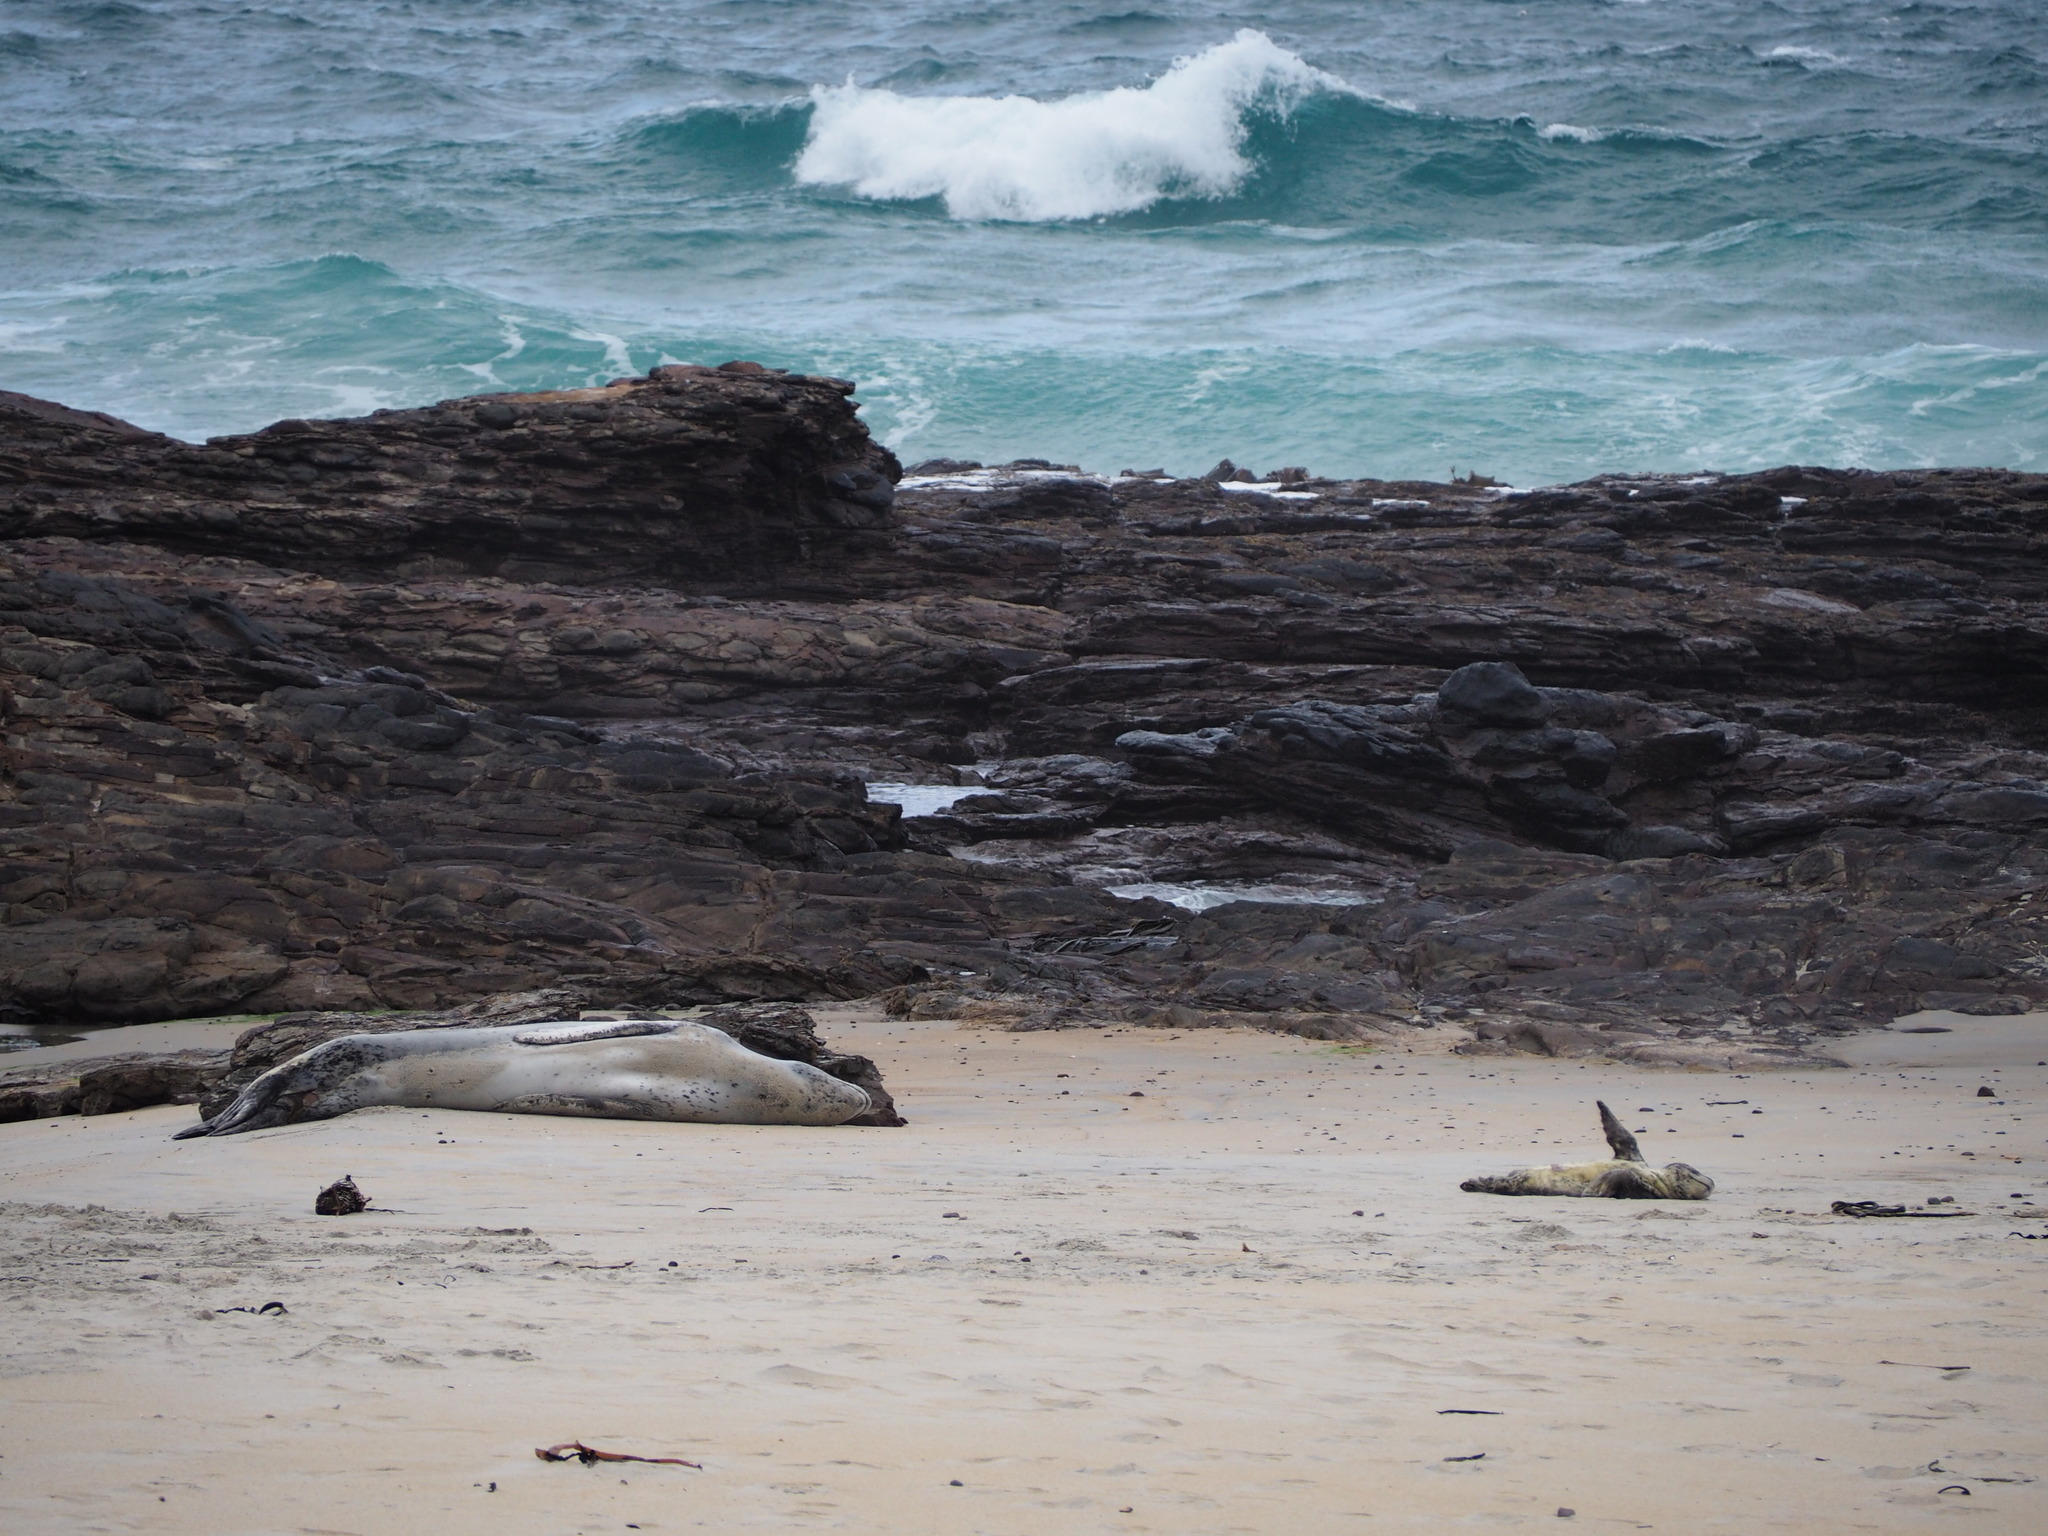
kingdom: Animalia
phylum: Chordata
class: Mammalia
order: Carnivora
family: Phocidae
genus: Hydrurga
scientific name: Hydrurga leptonyx
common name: Leopard seal
